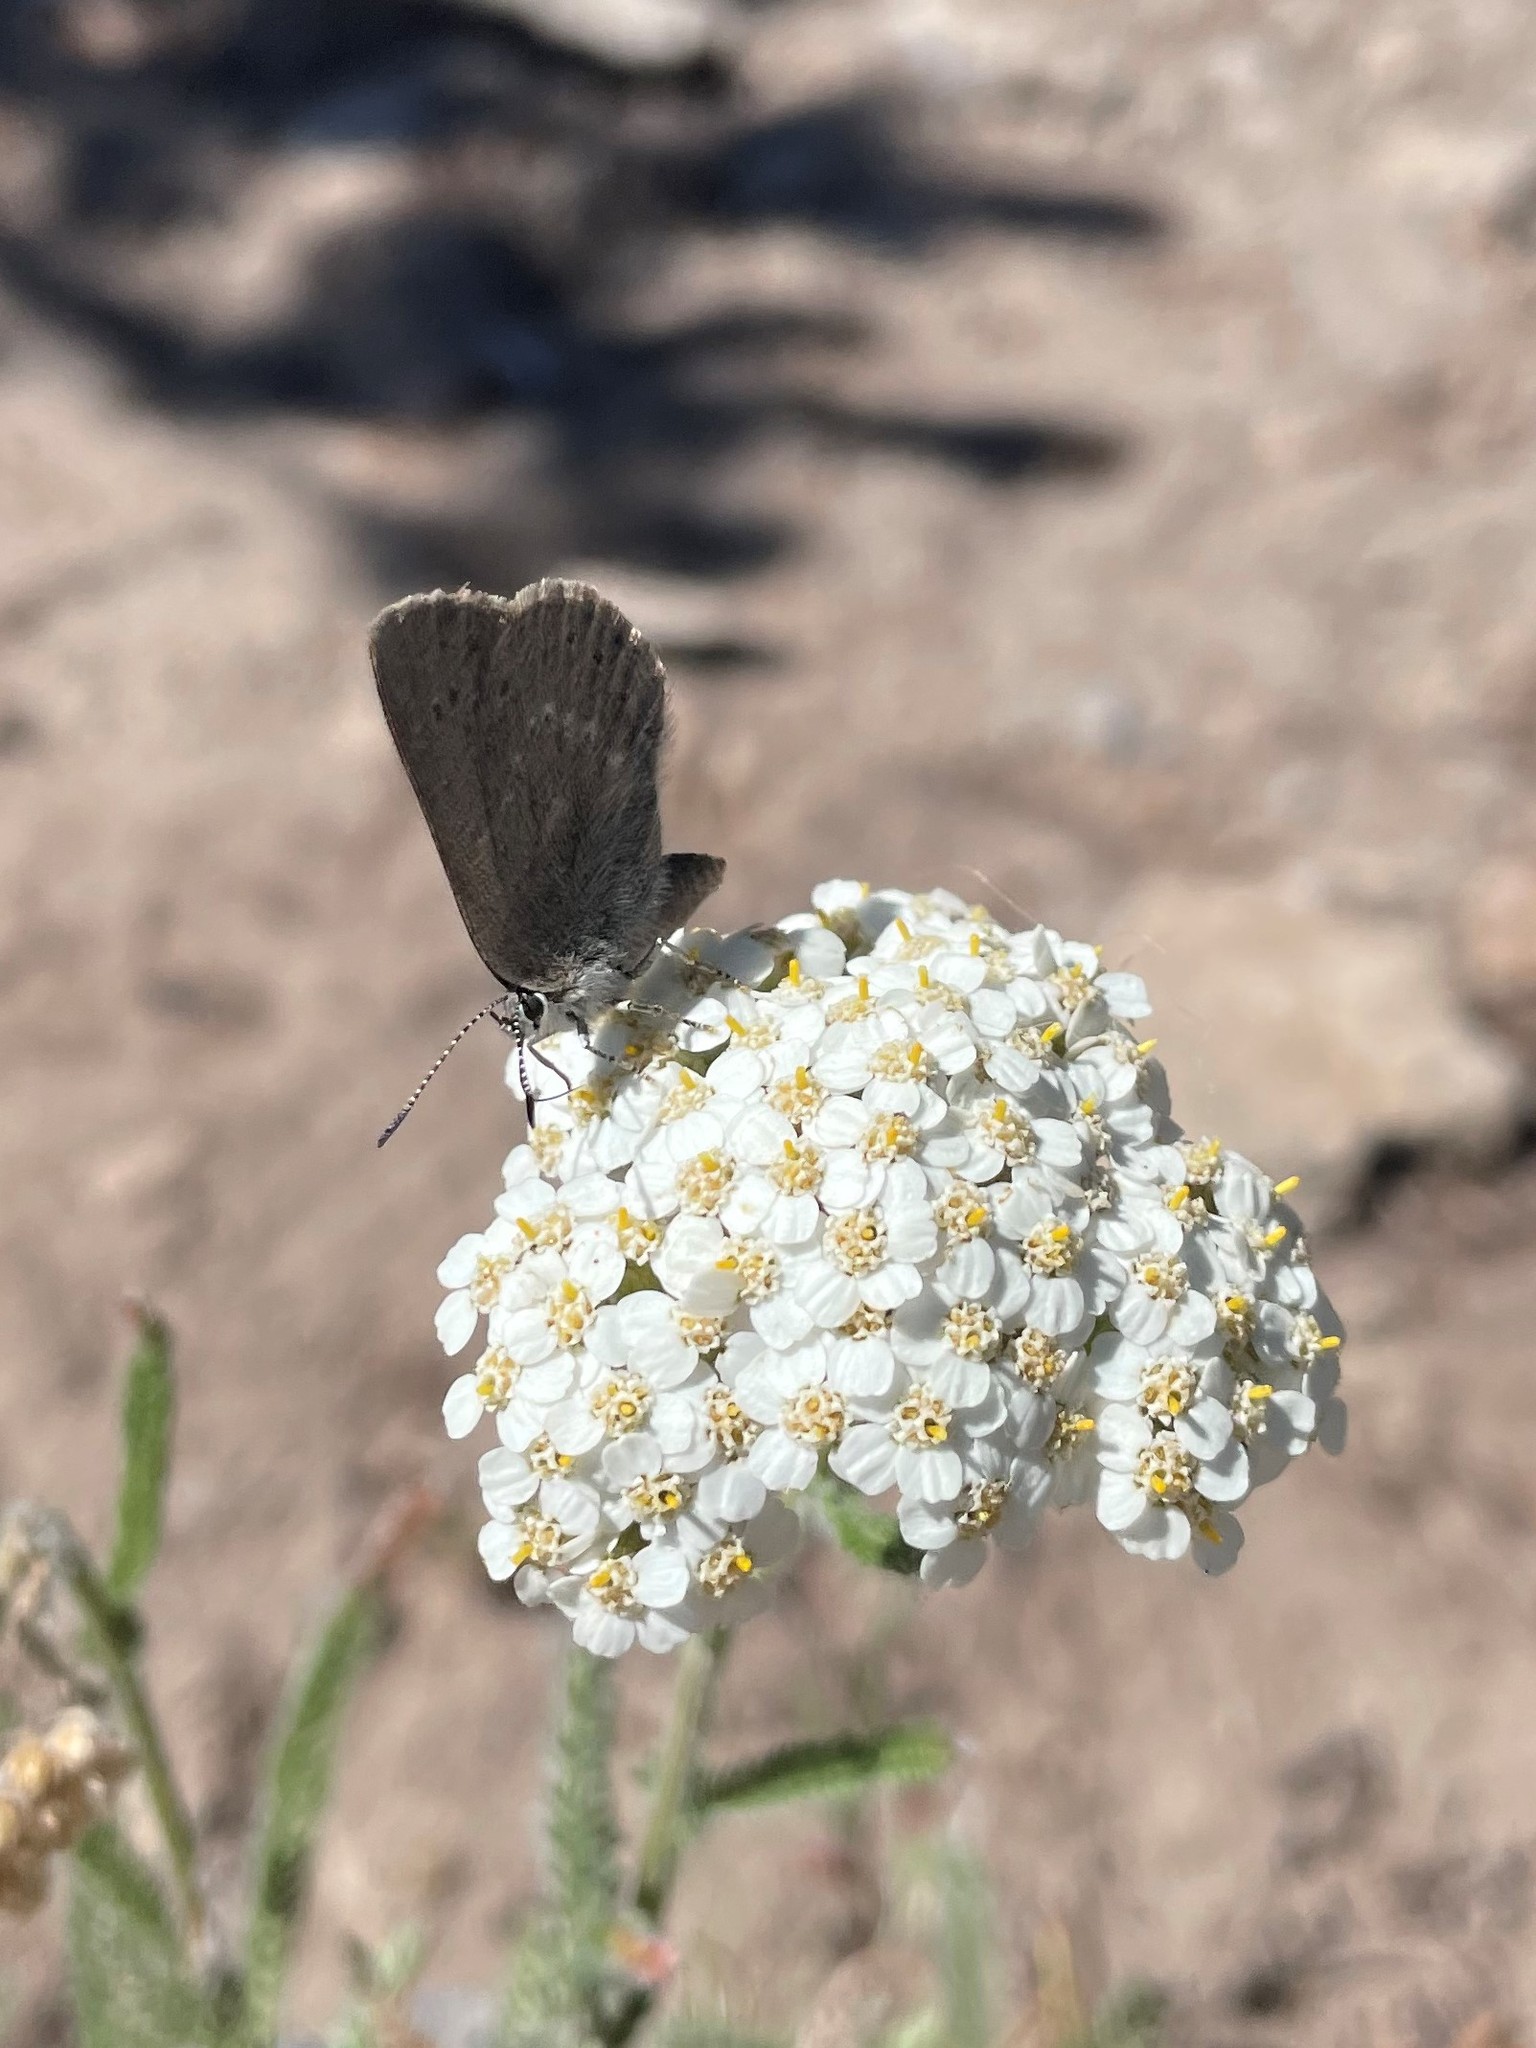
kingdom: Animalia
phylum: Arthropoda
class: Insecta
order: Lepidoptera
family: Lycaenidae
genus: Satyrium
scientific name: Satyrium fuliginosa
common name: Western sooty hairstreak
